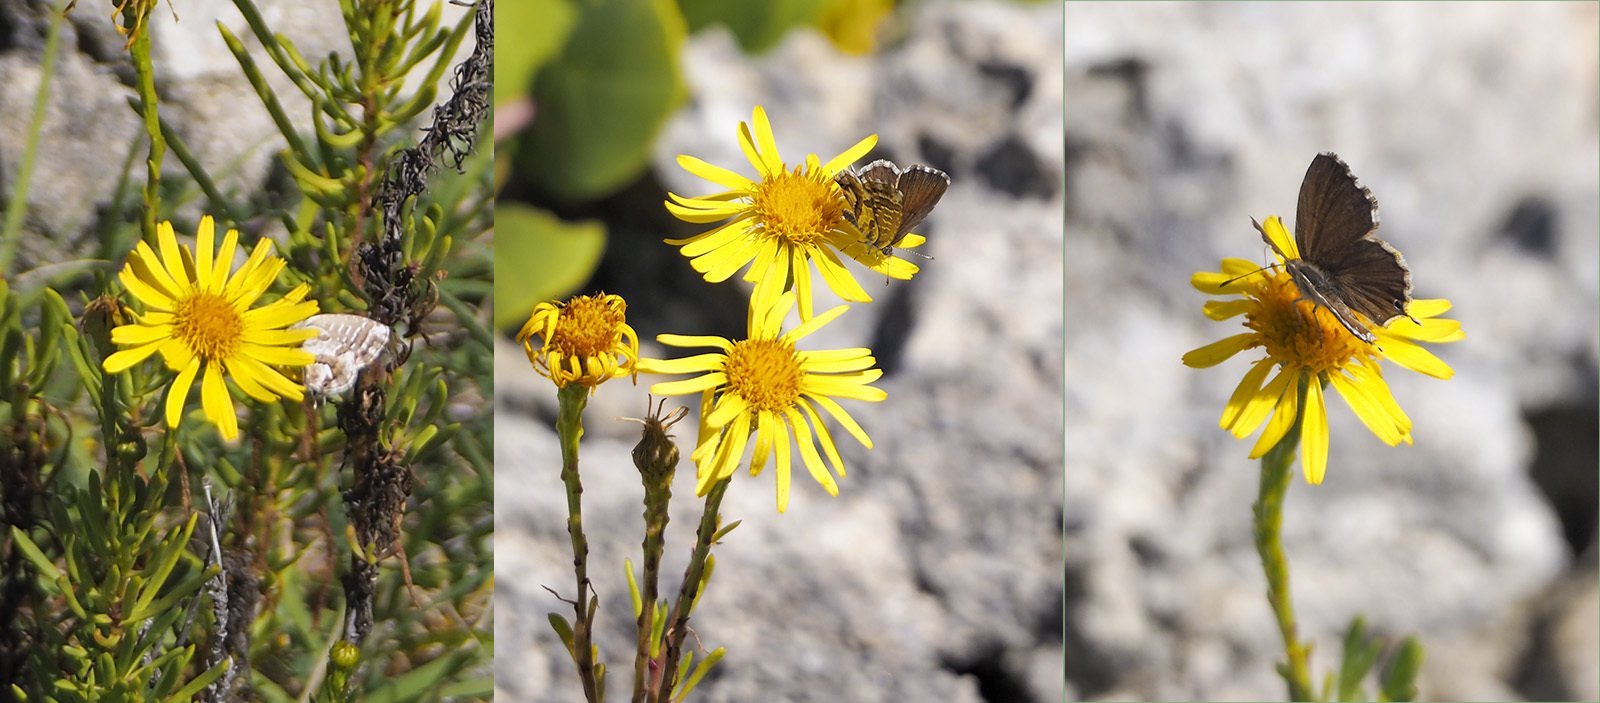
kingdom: Animalia
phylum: Arthropoda
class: Insecta
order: Lepidoptera
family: Lycaenidae
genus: Cacyreus
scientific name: Cacyreus marshalli
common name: Geranium bronze
